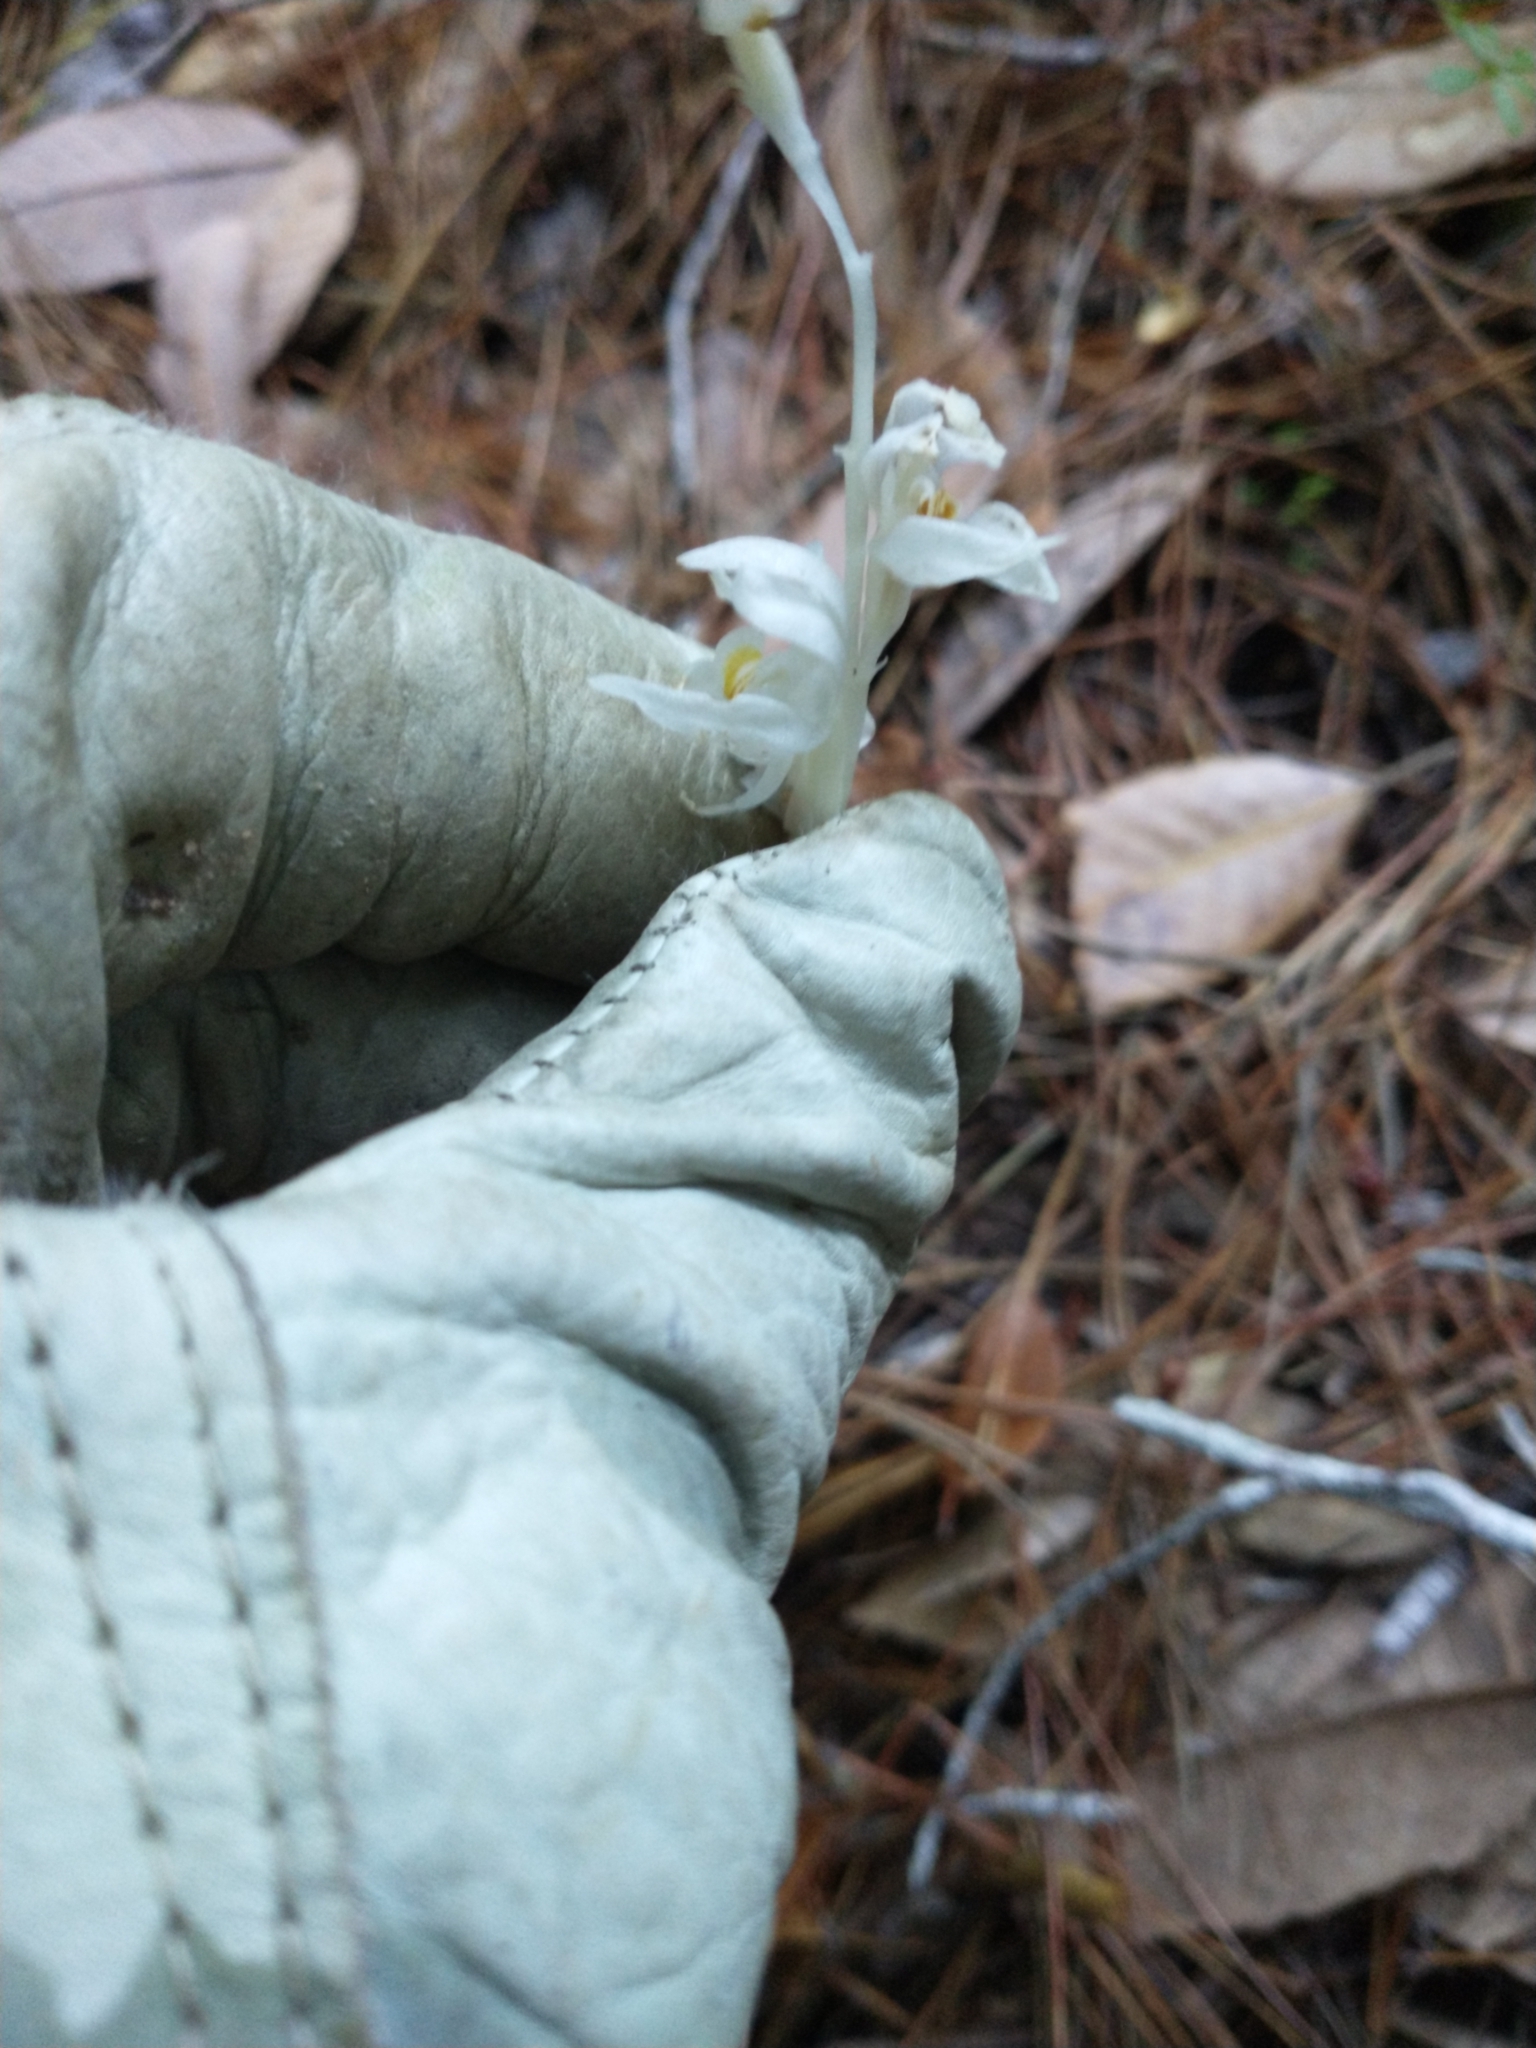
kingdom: Plantae
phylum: Tracheophyta
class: Liliopsida
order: Asparagales
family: Orchidaceae
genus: Cephalanthera
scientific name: Cephalanthera austiniae
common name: Phantom orchid
